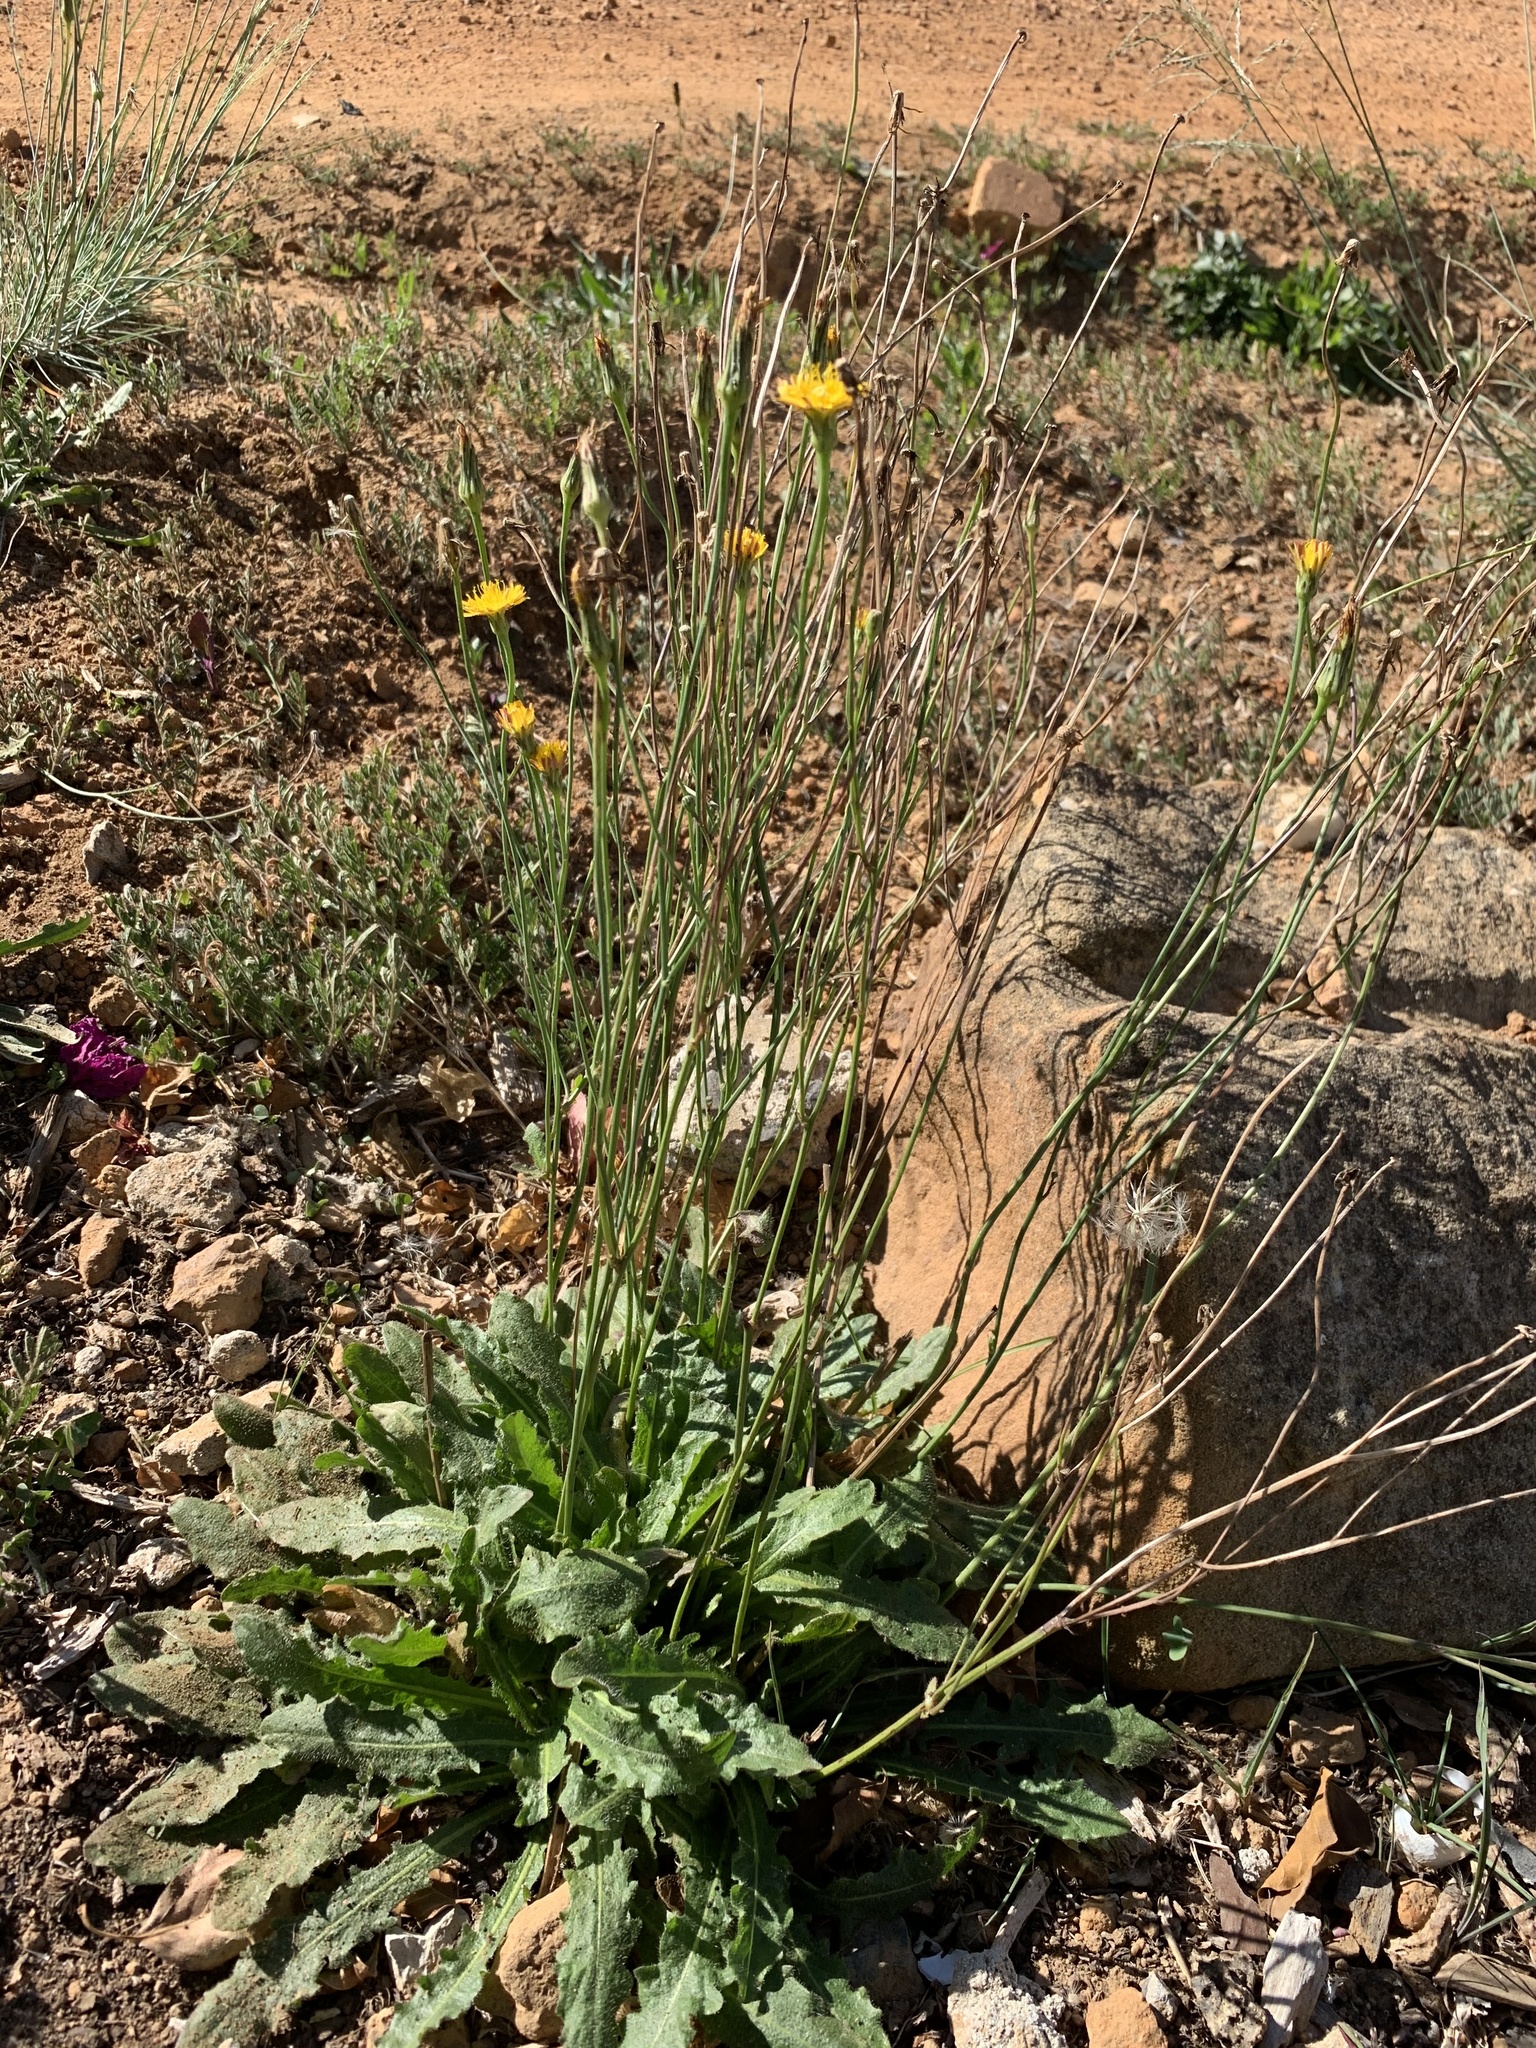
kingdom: Plantae
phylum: Tracheophyta
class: Magnoliopsida
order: Asterales
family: Asteraceae
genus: Hypochaeris
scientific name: Hypochaeris radicata
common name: Flatweed
